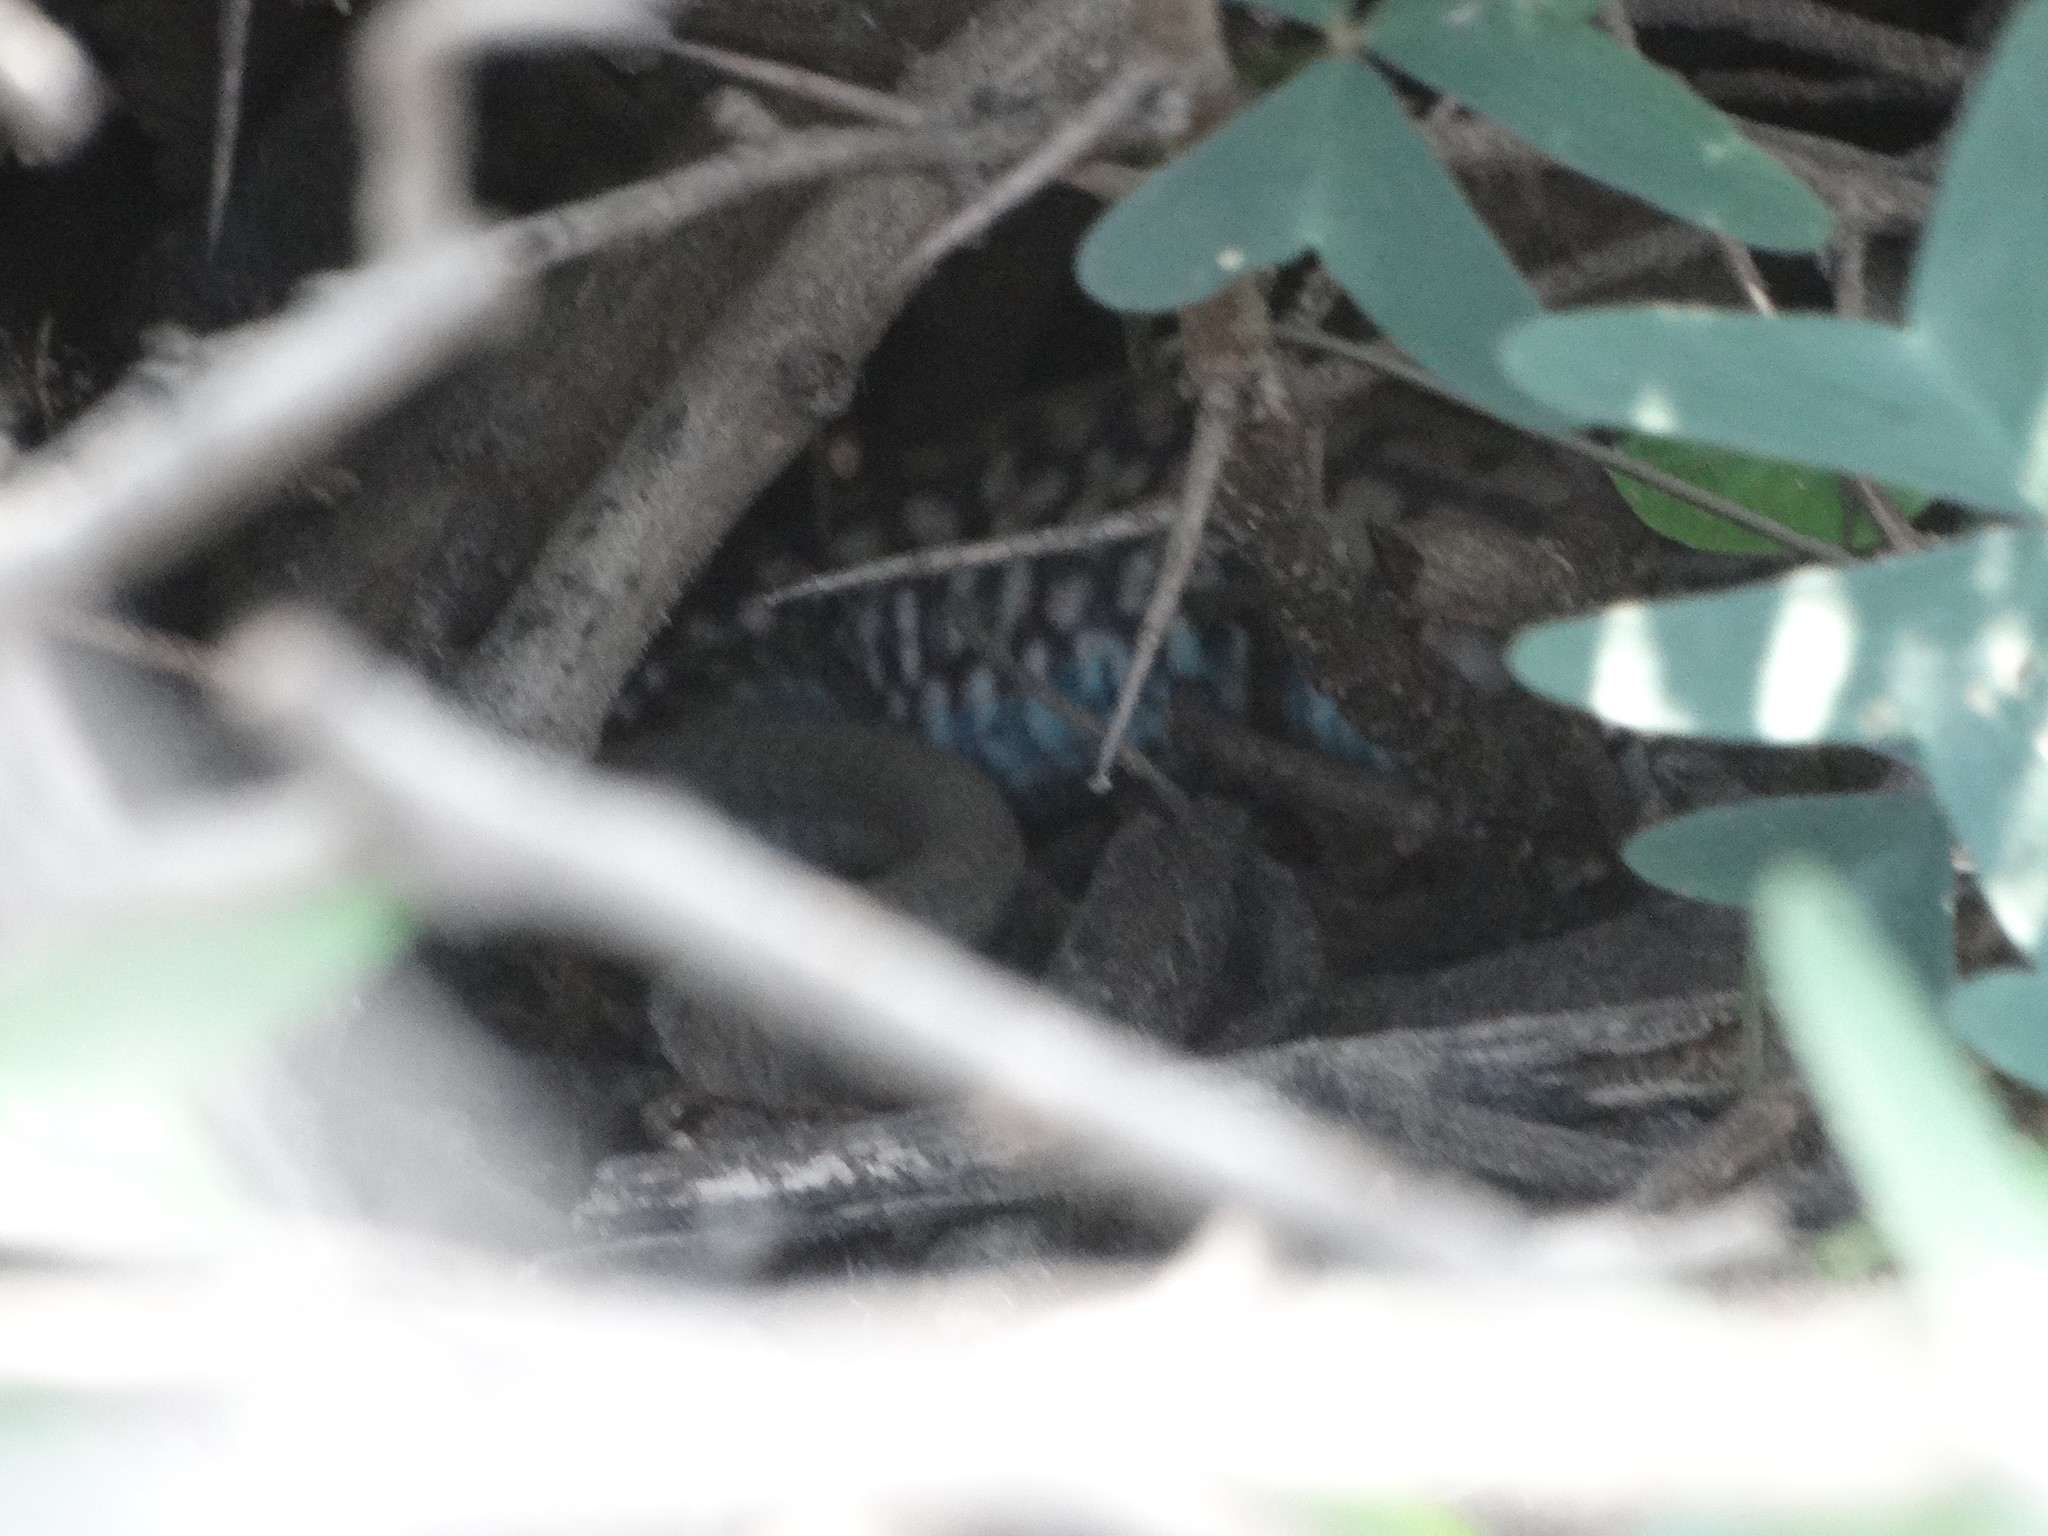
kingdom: Animalia
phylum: Chordata
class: Squamata
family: Teiidae
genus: Aspidoscelis
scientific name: Aspidoscelis costatus
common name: Western mexico whiptail
